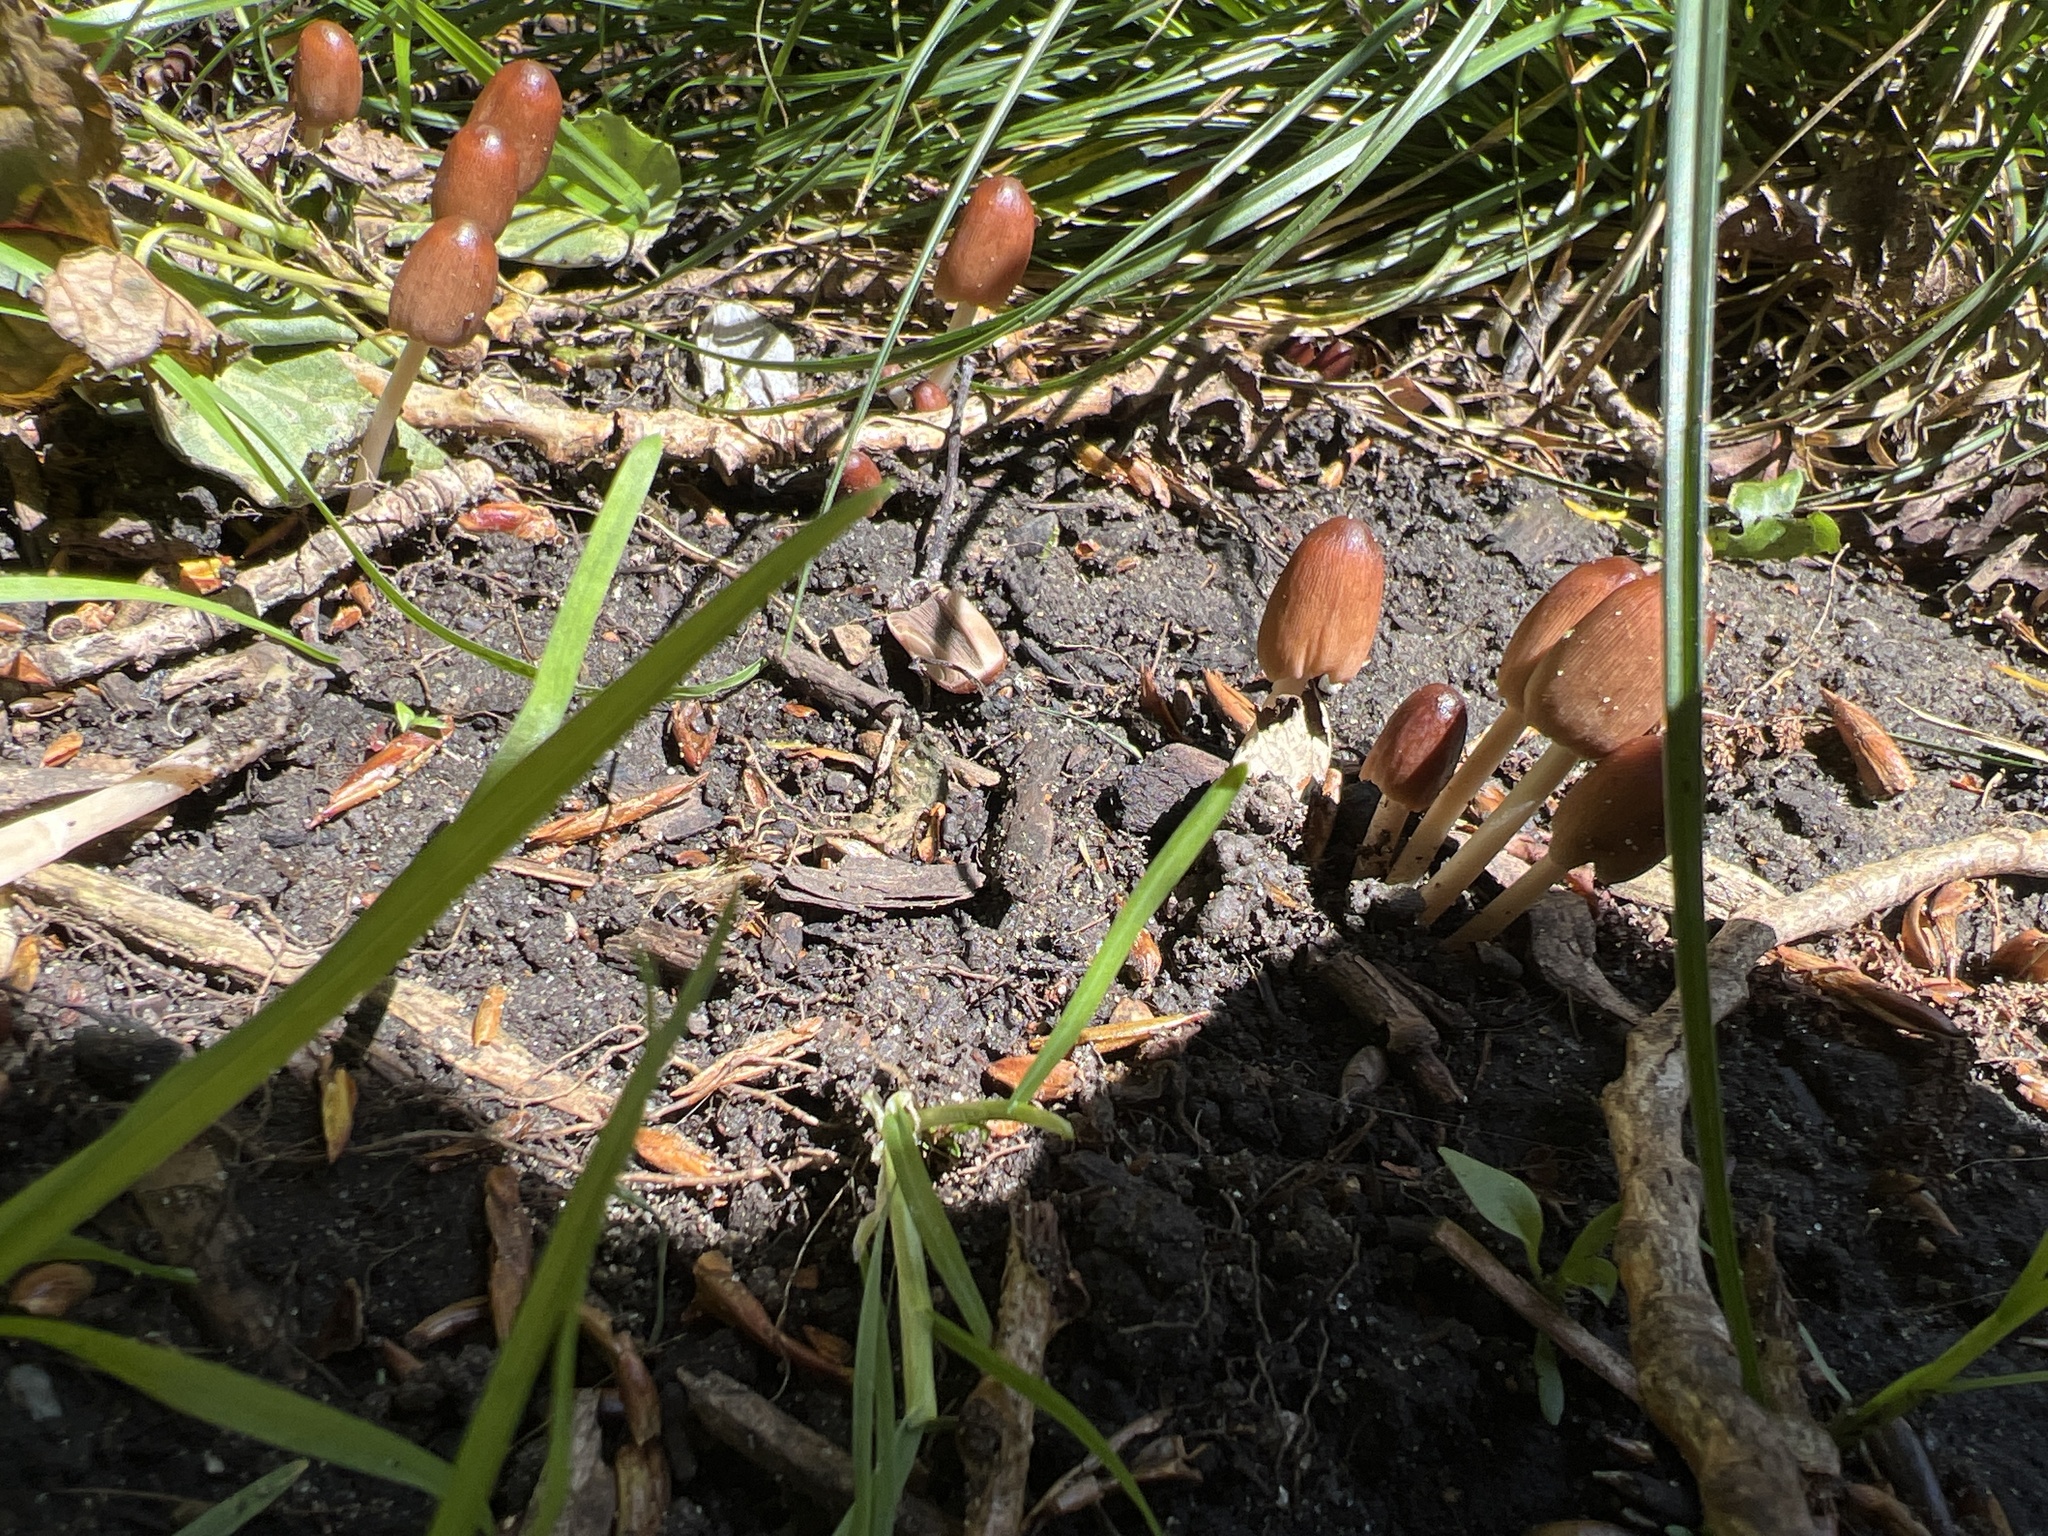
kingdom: Fungi
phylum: Basidiomycota
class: Agaricomycetes
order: Agaricales
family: Psathyrellaceae
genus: Parasola
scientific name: Parasola auricoma
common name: Goldenhaired inkcap
